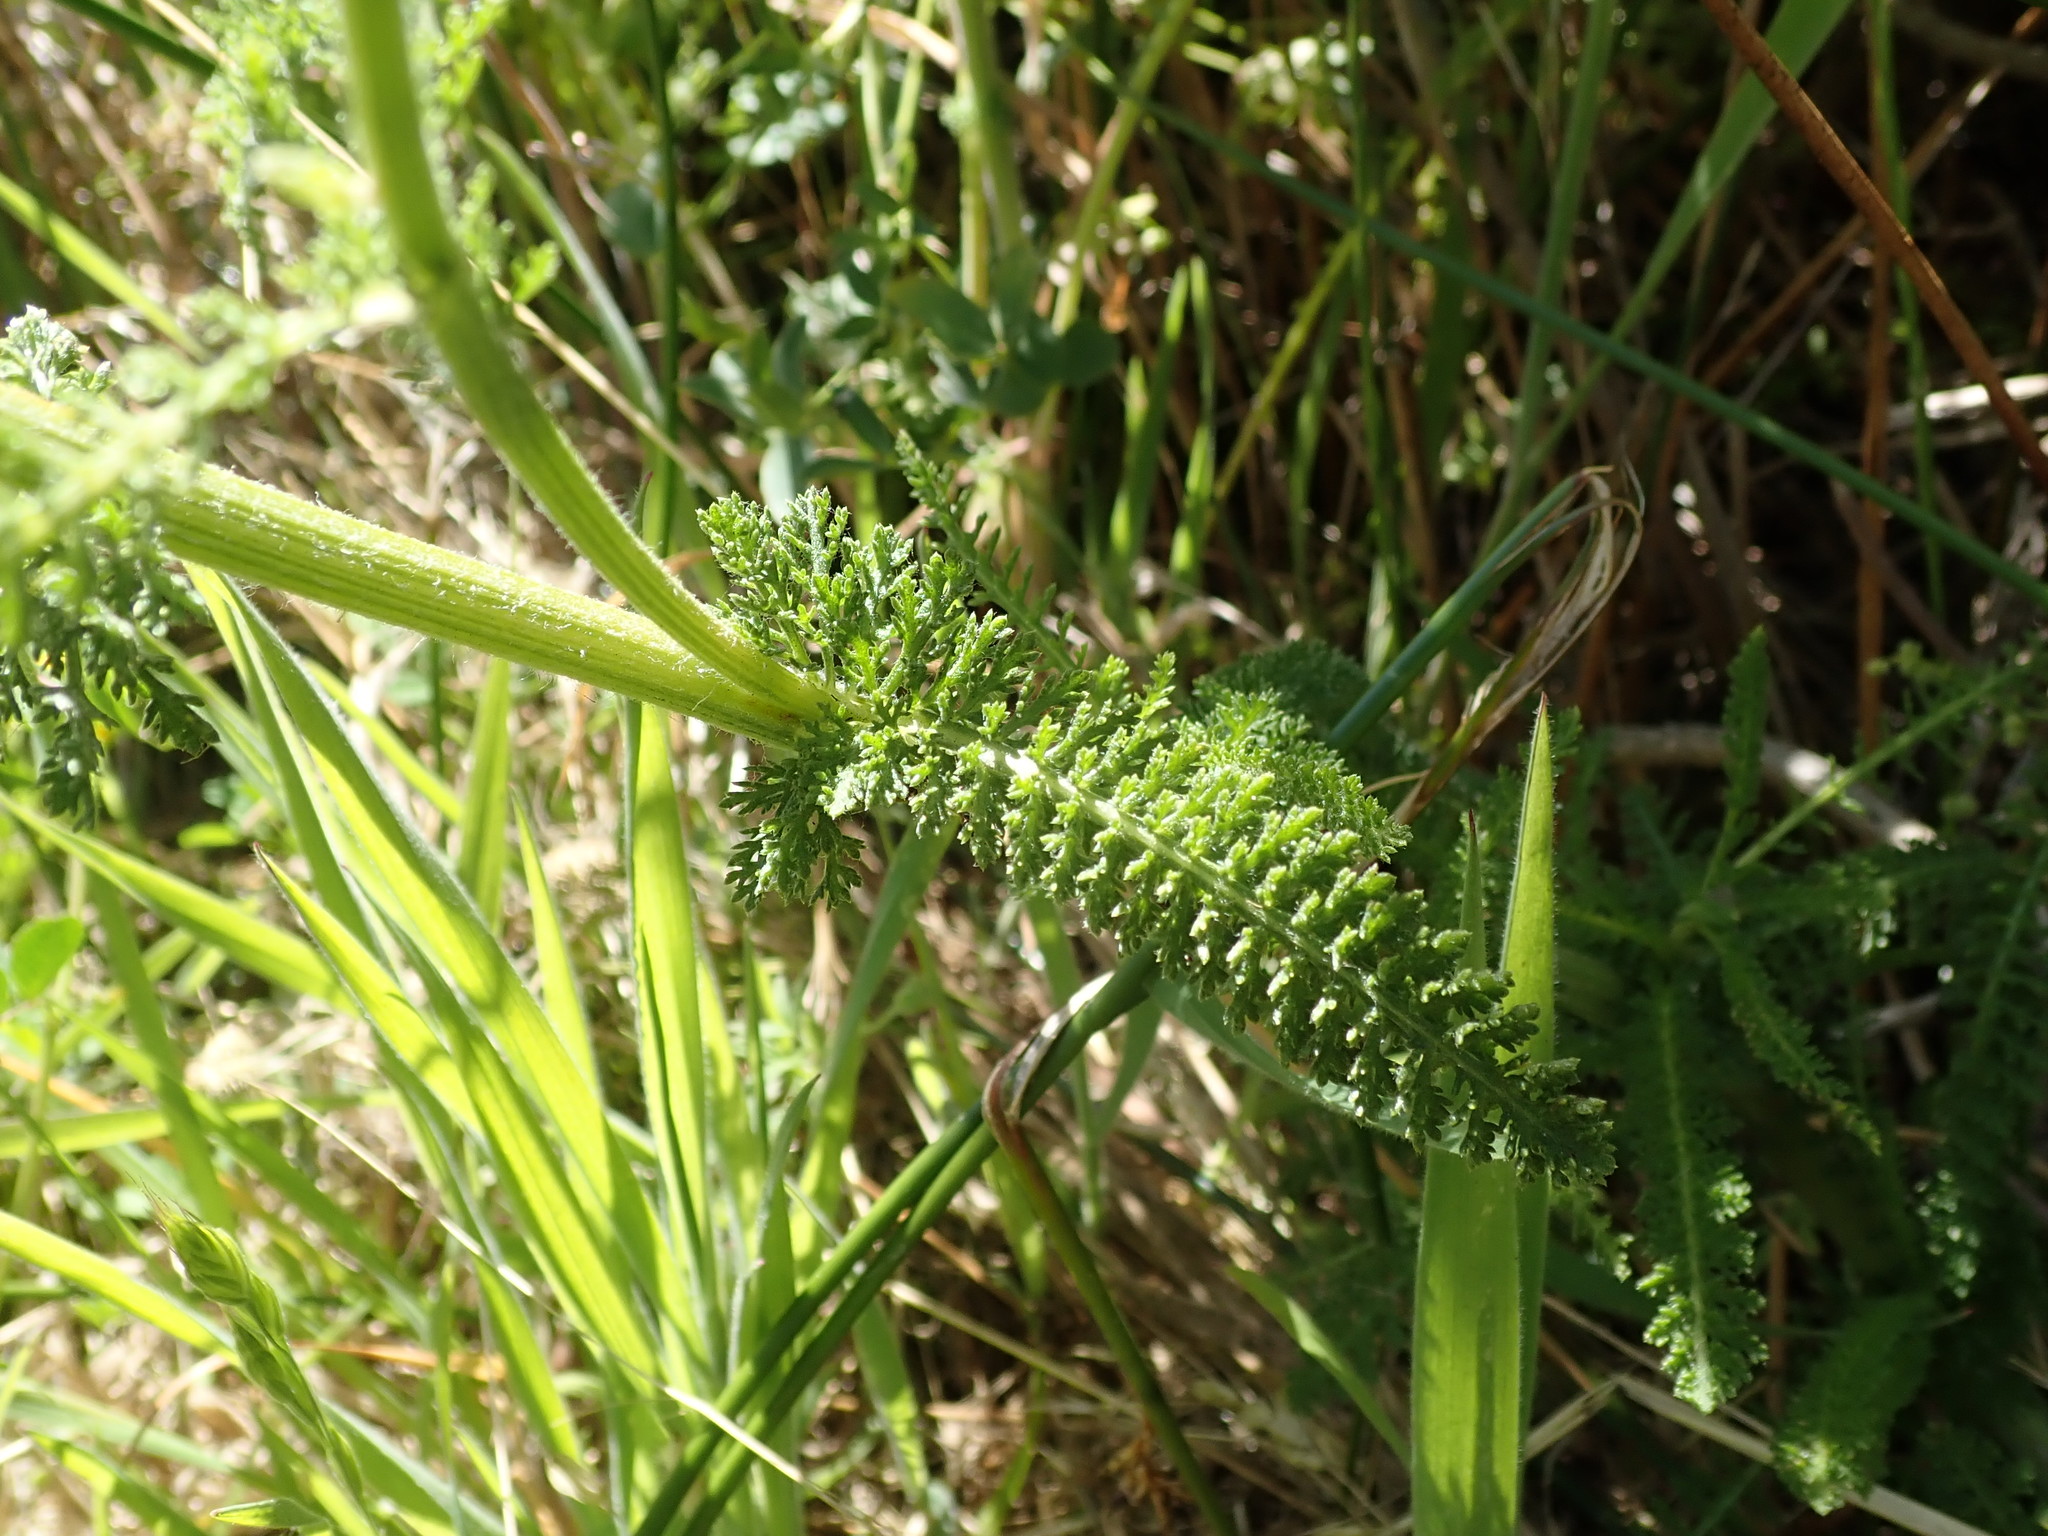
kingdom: Plantae
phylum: Tracheophyta
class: Magnoliopsida
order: Asterales
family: Asteraceae
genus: Achillea
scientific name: Achillea millefolium
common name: Yarrow
